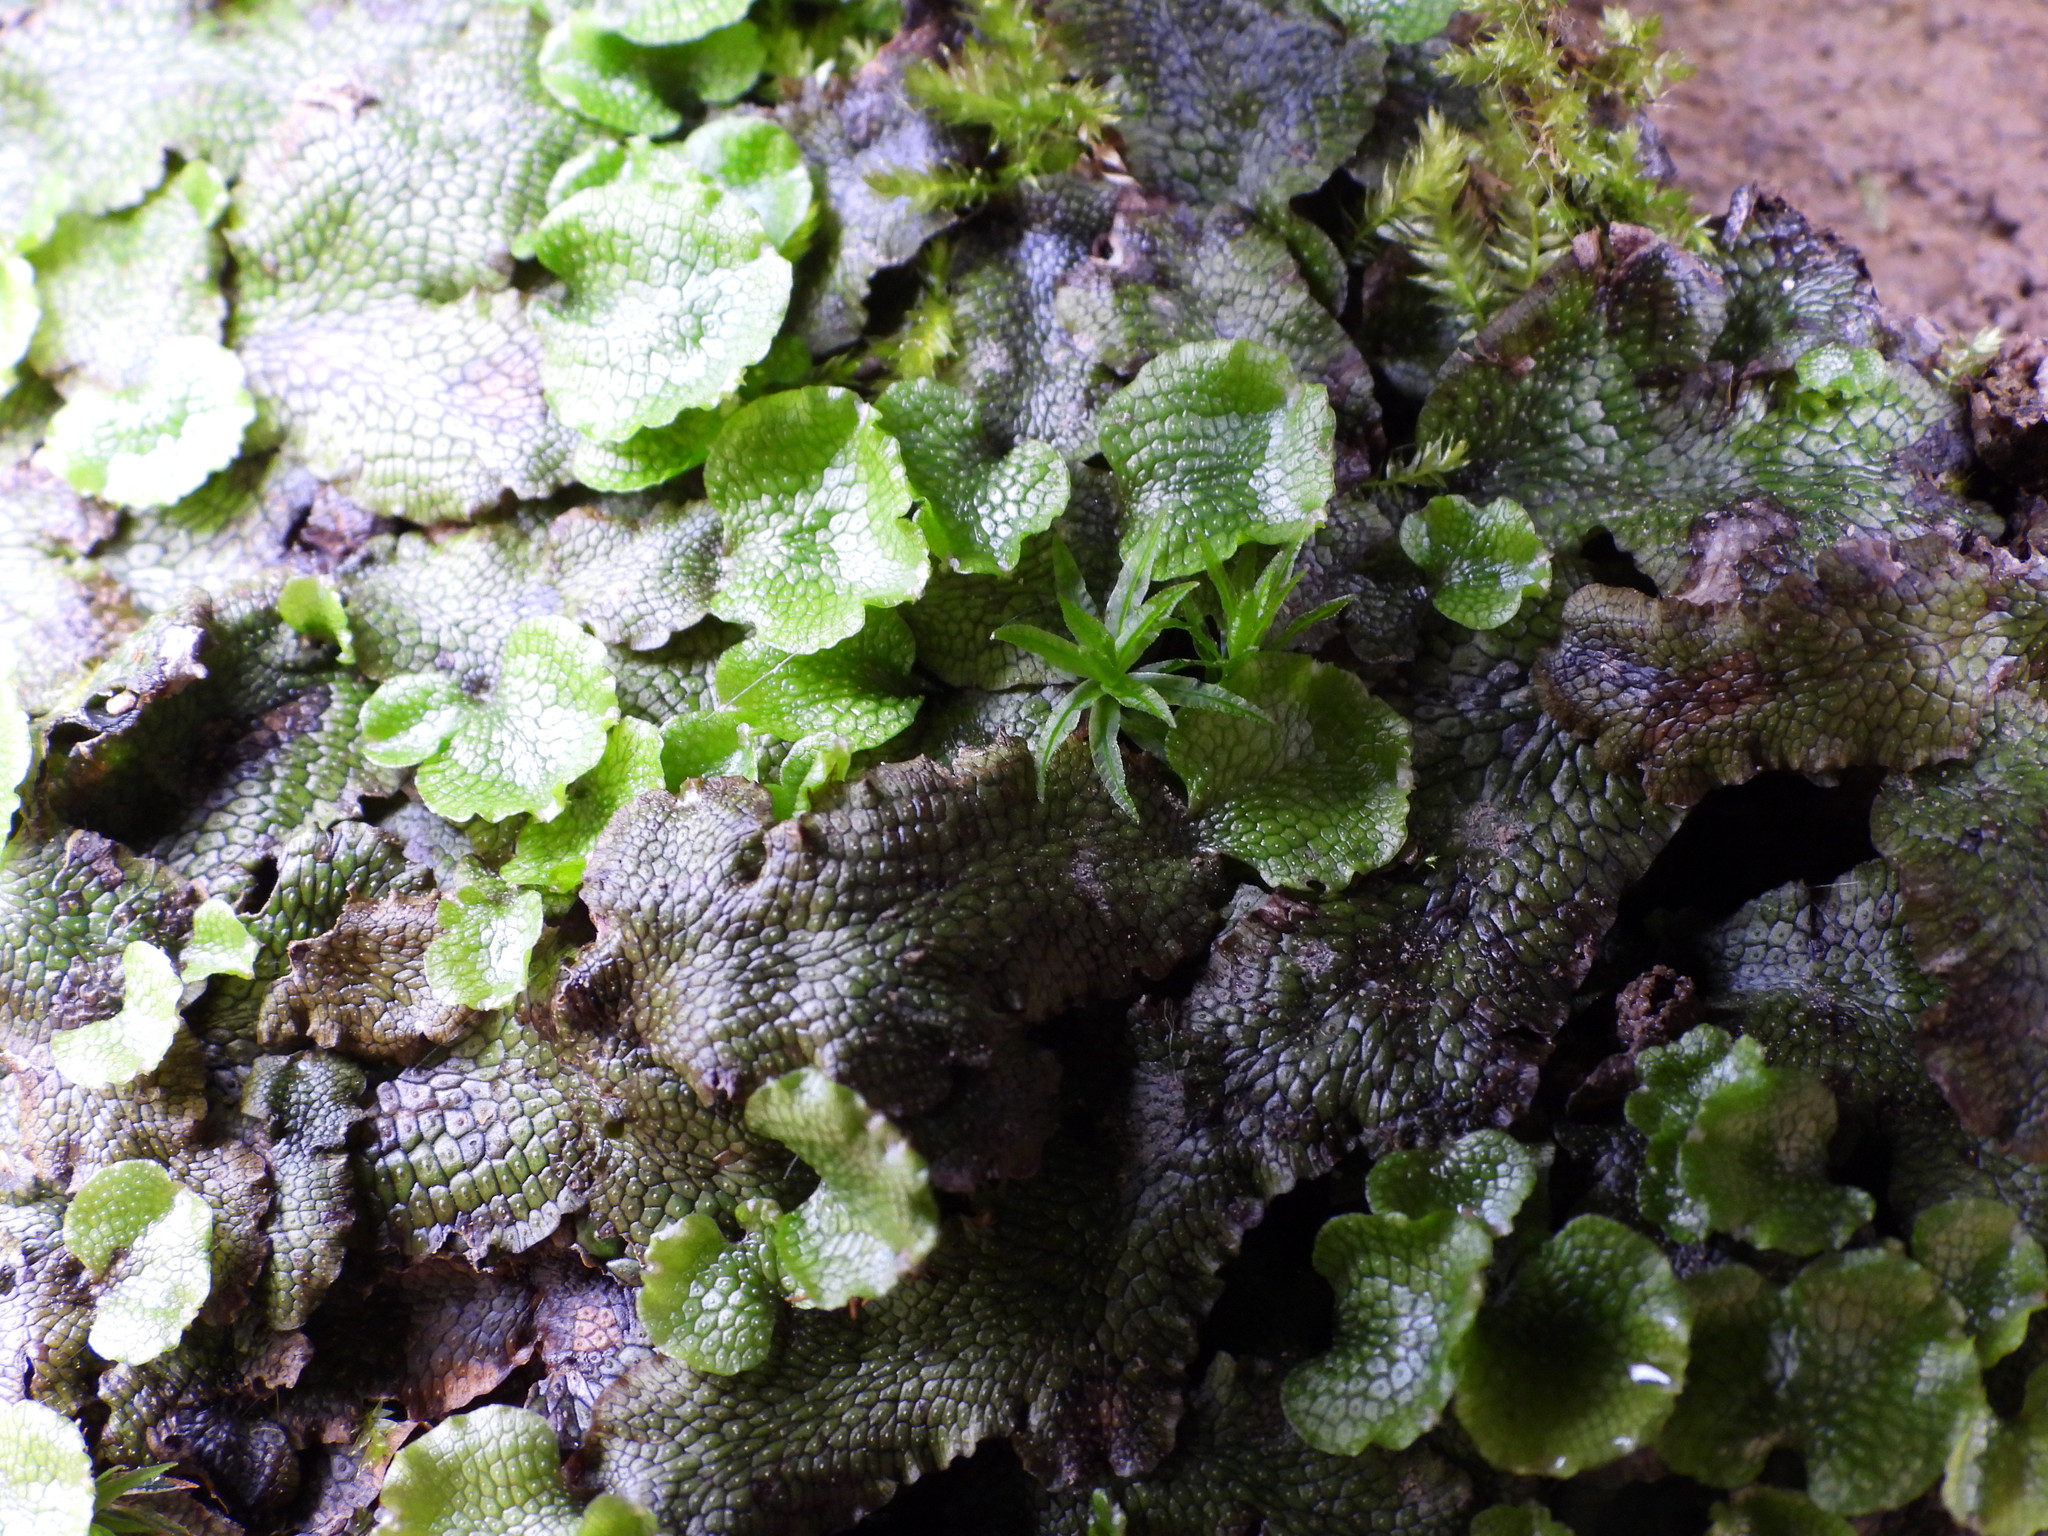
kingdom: Plantae
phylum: Marchantiophyta
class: Marchantiopsida
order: Marchantiales
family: Conocephalaceae
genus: Conocephalum
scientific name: Conocephalum salebrosum
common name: Cat-tongue liverwort
